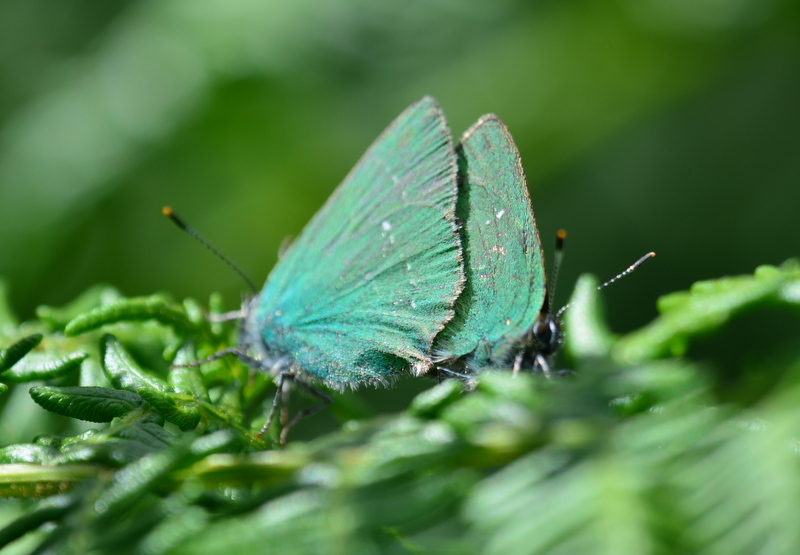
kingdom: Animalia
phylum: Arthropoda
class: Insecta
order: Lepidoptera
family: Lycaenidae
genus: Callophrys
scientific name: Callophrys rubi
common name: Green hairstreak
